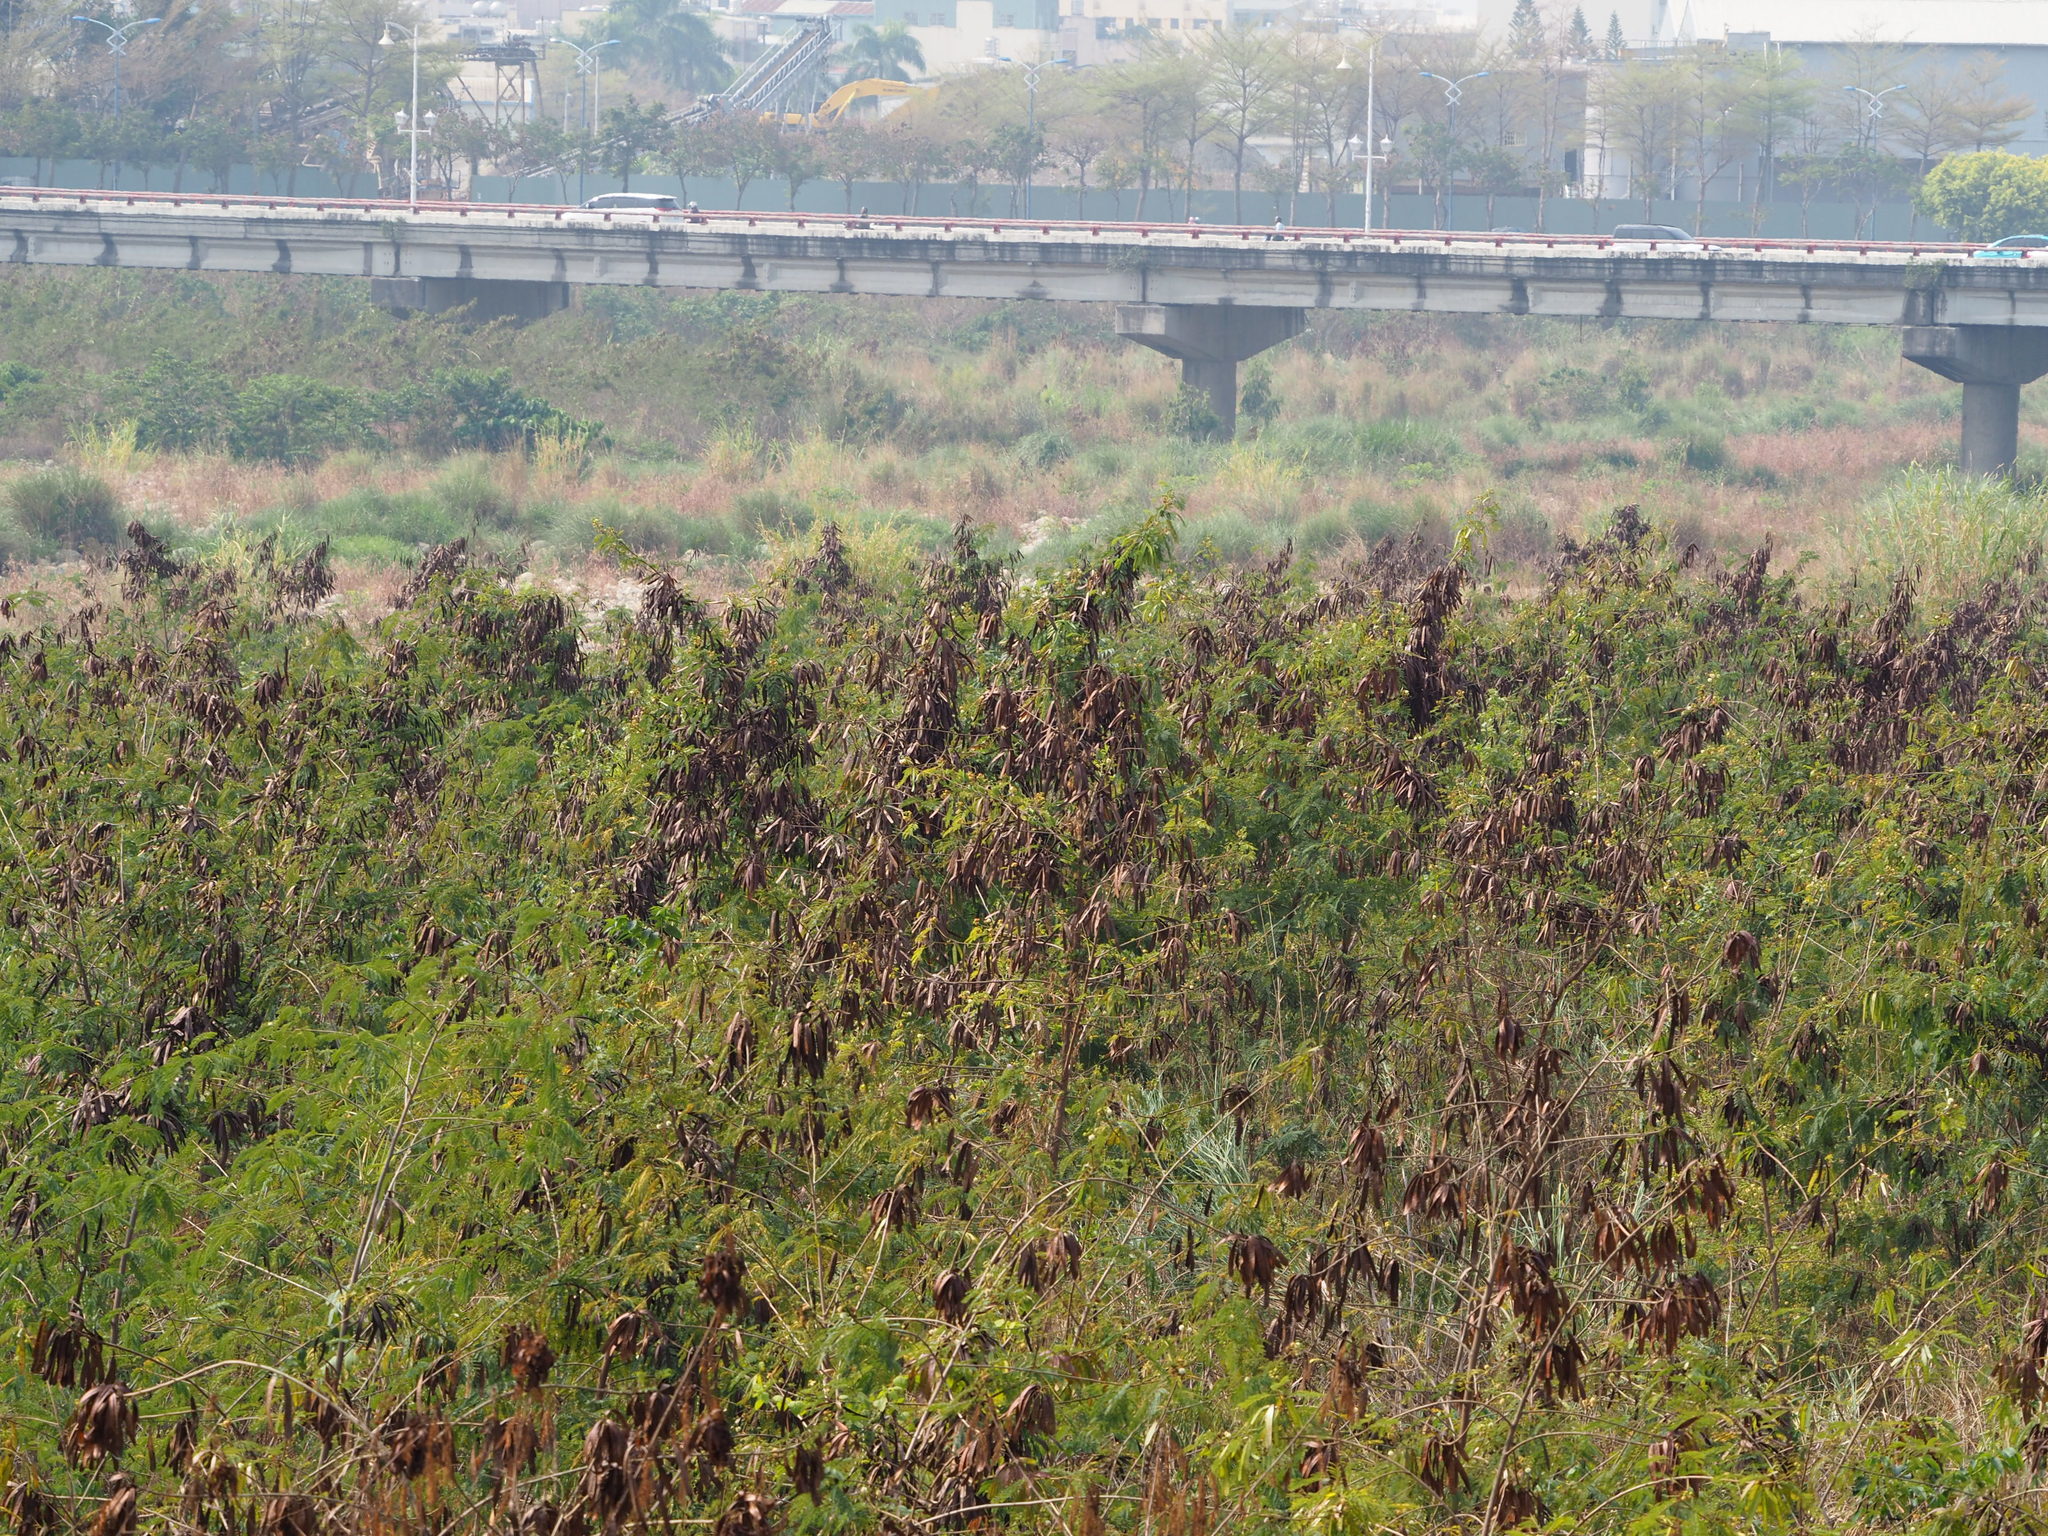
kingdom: Plantae
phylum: Tracheophyta
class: Magnoliopsida
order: Fabales
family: Fabaceae
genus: Leucaena
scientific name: Leucaena leucocephala
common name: White leadtree
